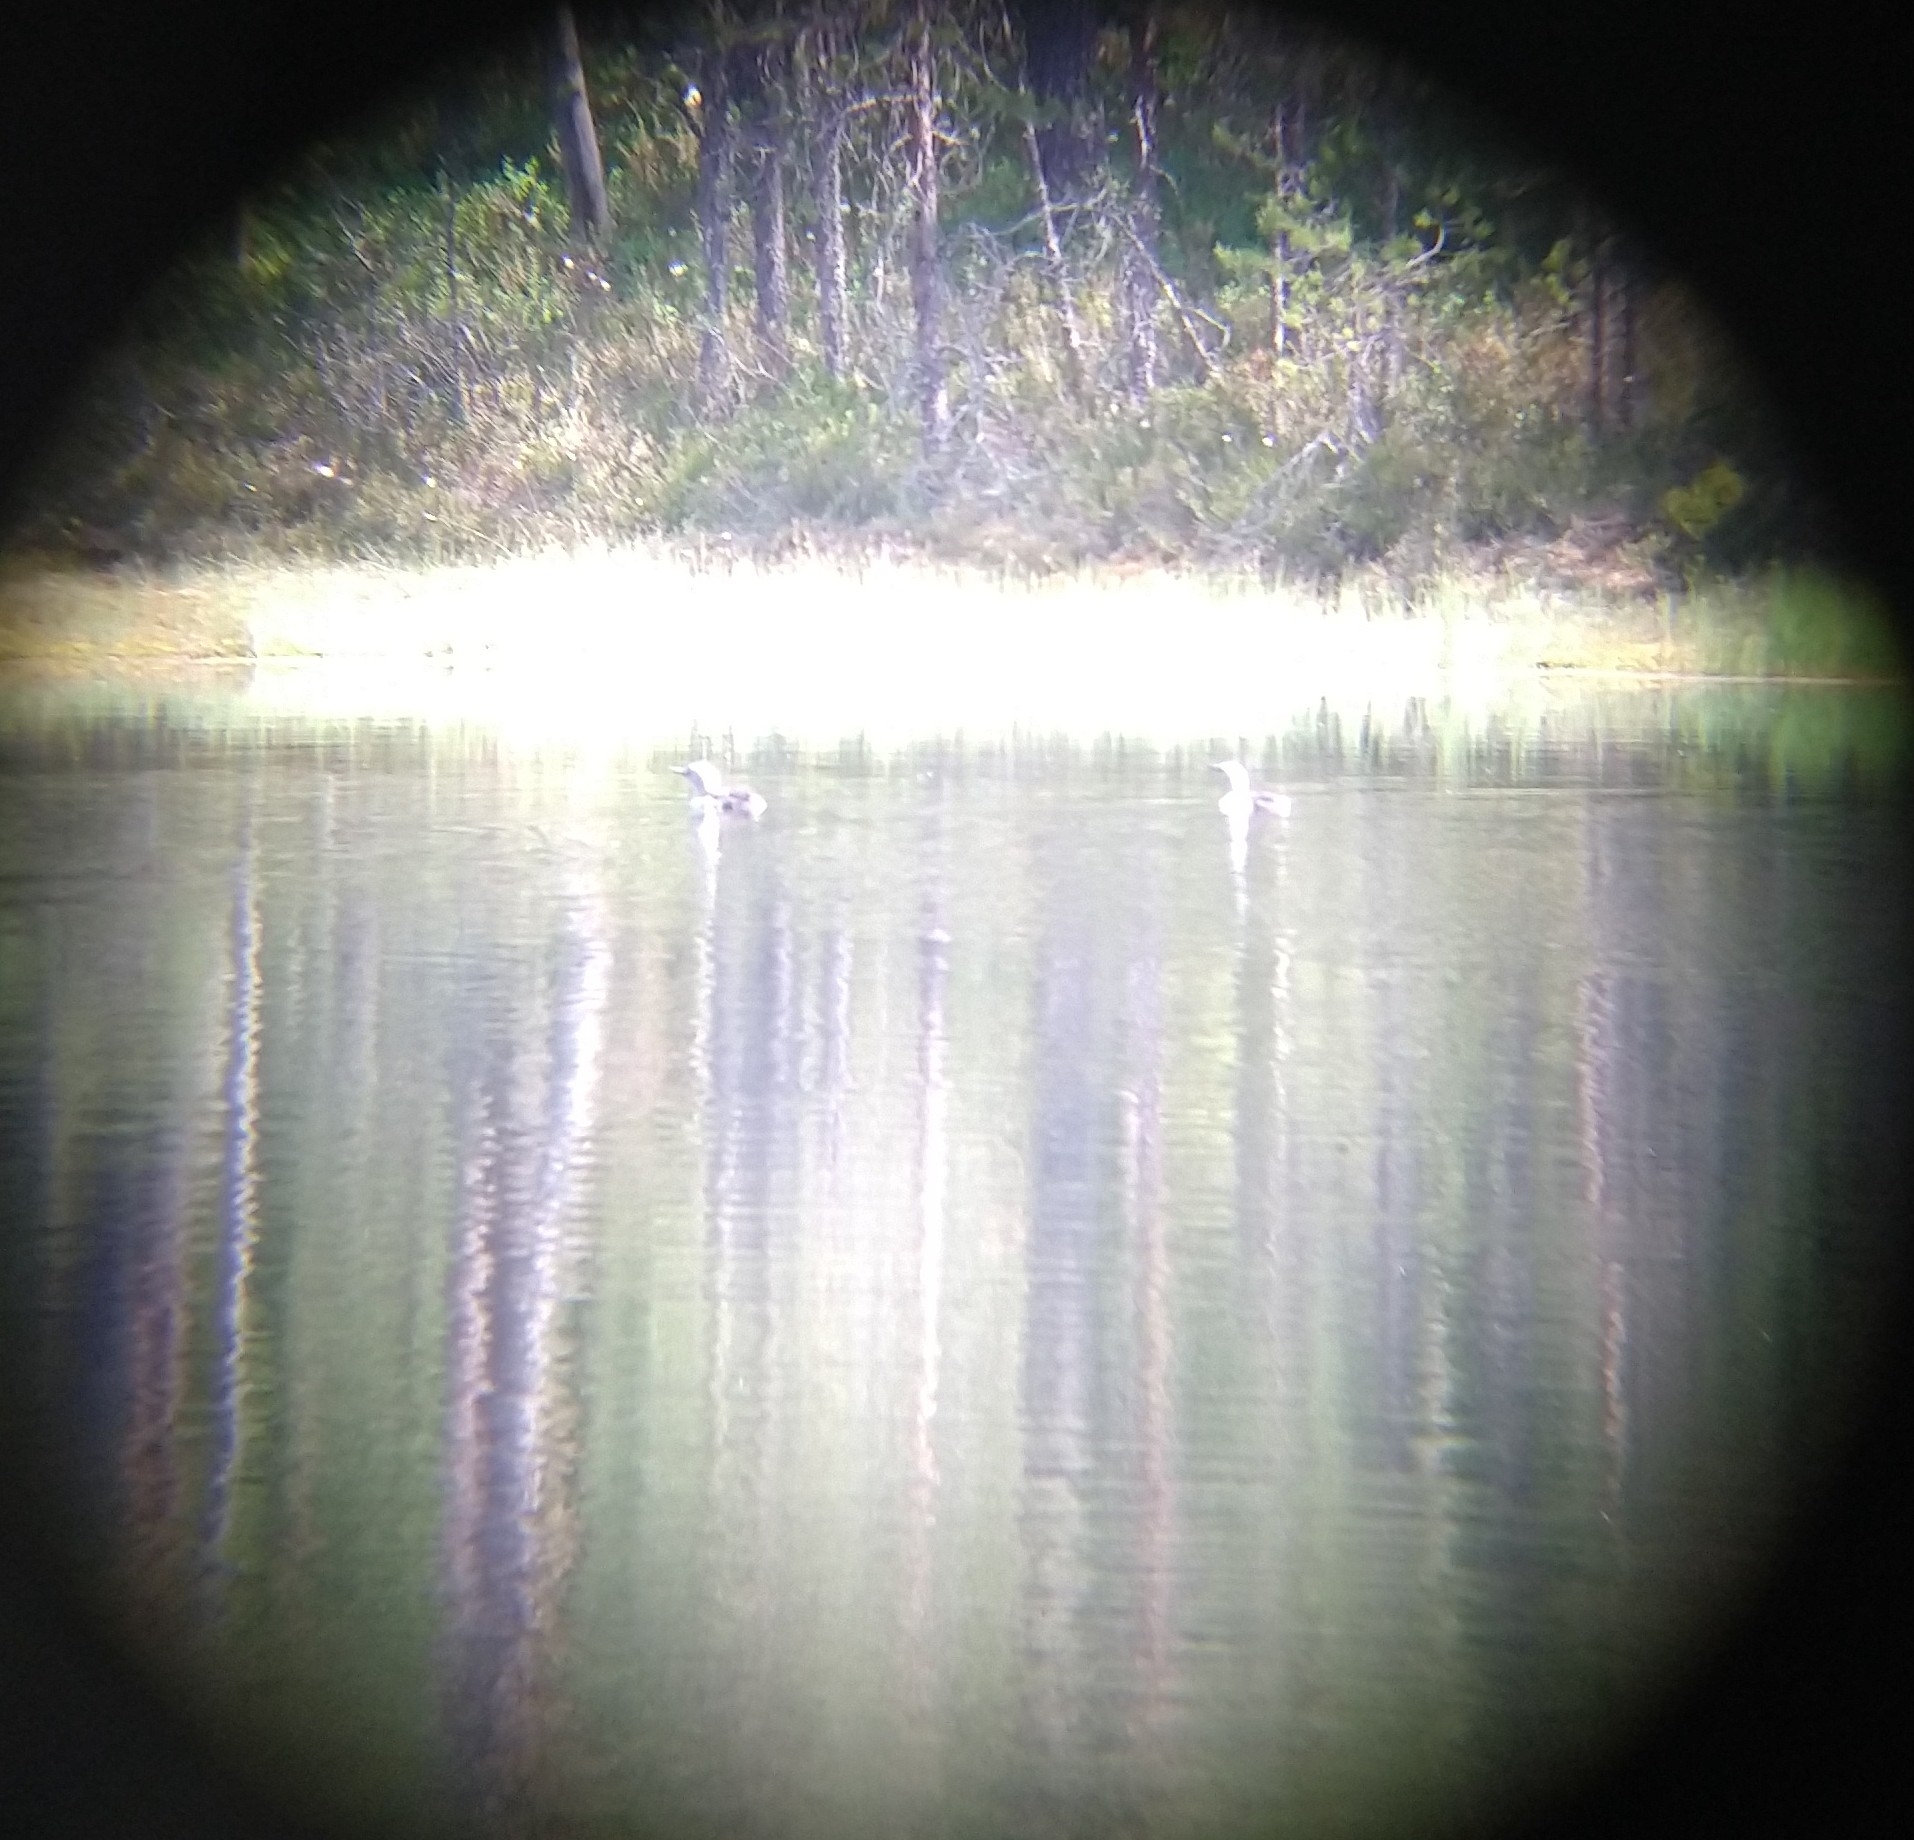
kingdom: Animalia
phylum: Chordata
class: Aves
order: Gaviiformes
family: Gaviidae
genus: Gavia
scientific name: Gavia arctica
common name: Black-throated loon
